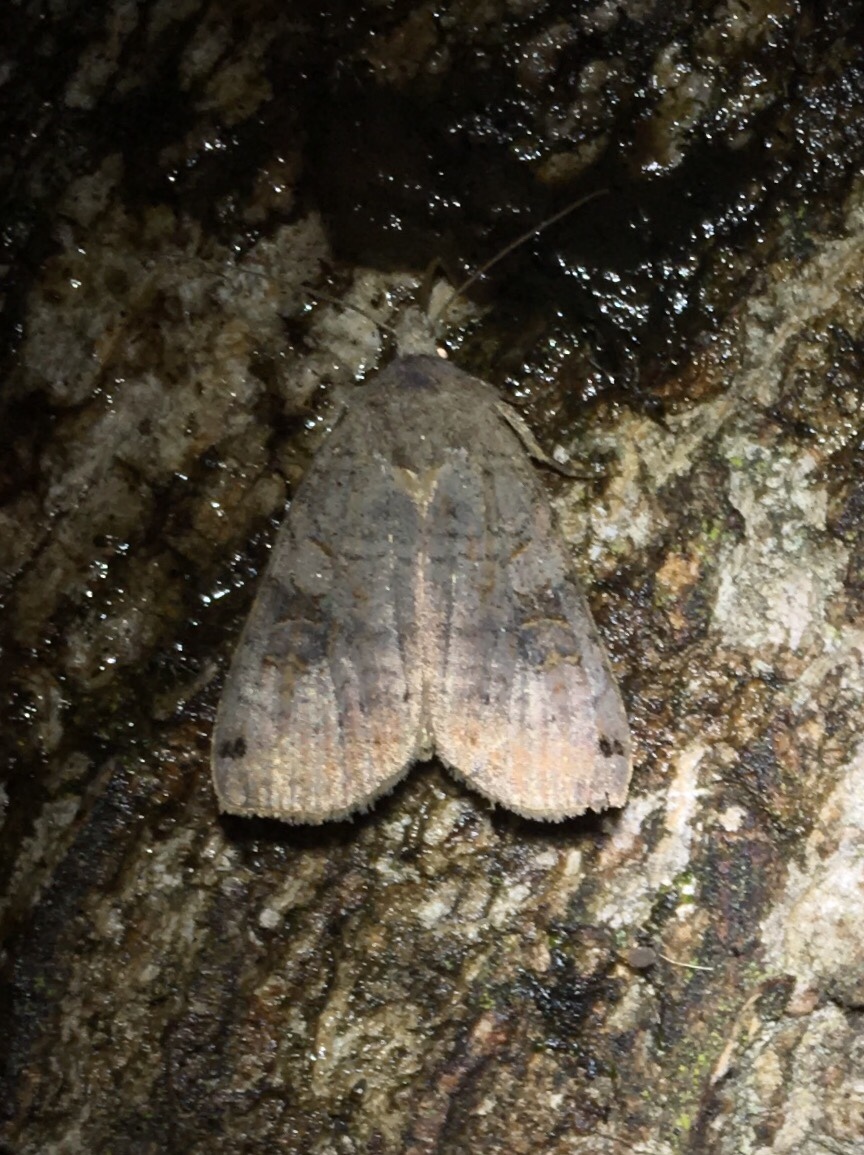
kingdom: Animalia
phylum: Arthropoda
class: Insecta
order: Lepidoptera
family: Noctuidae
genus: Xestia
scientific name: Xestia smithii
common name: Smith's dart
